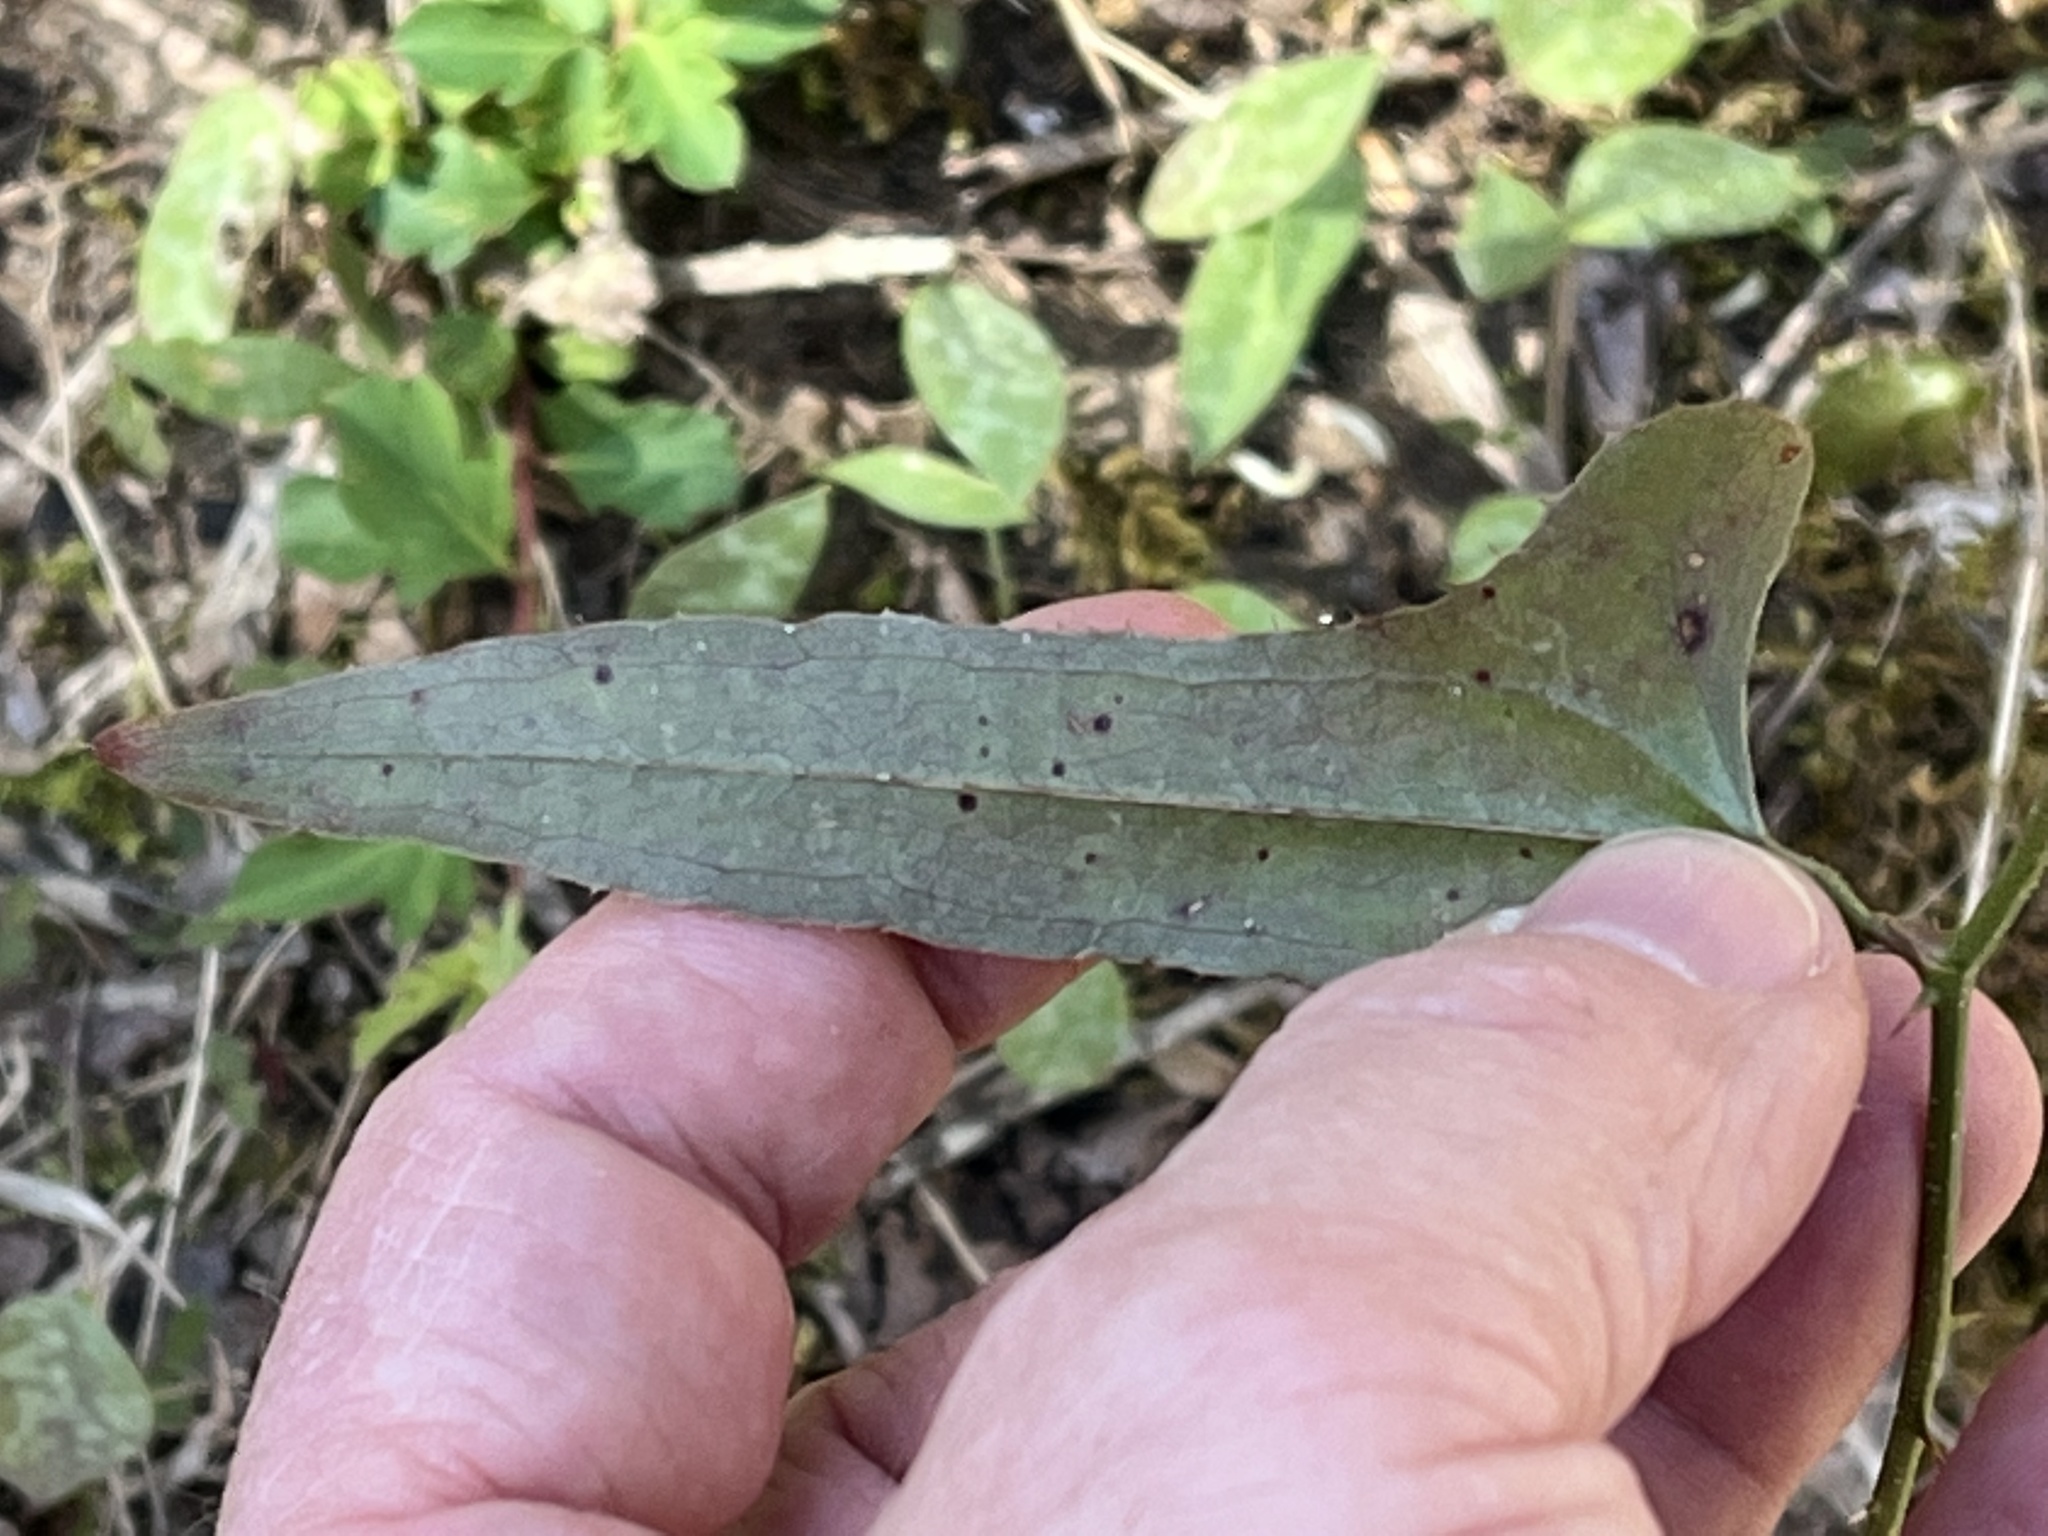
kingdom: Plantae
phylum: Tracheophyta
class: Liliopsida
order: Liliales
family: Smilacaceae
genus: Smilax
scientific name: Smilax bona-nox
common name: Catbrier
